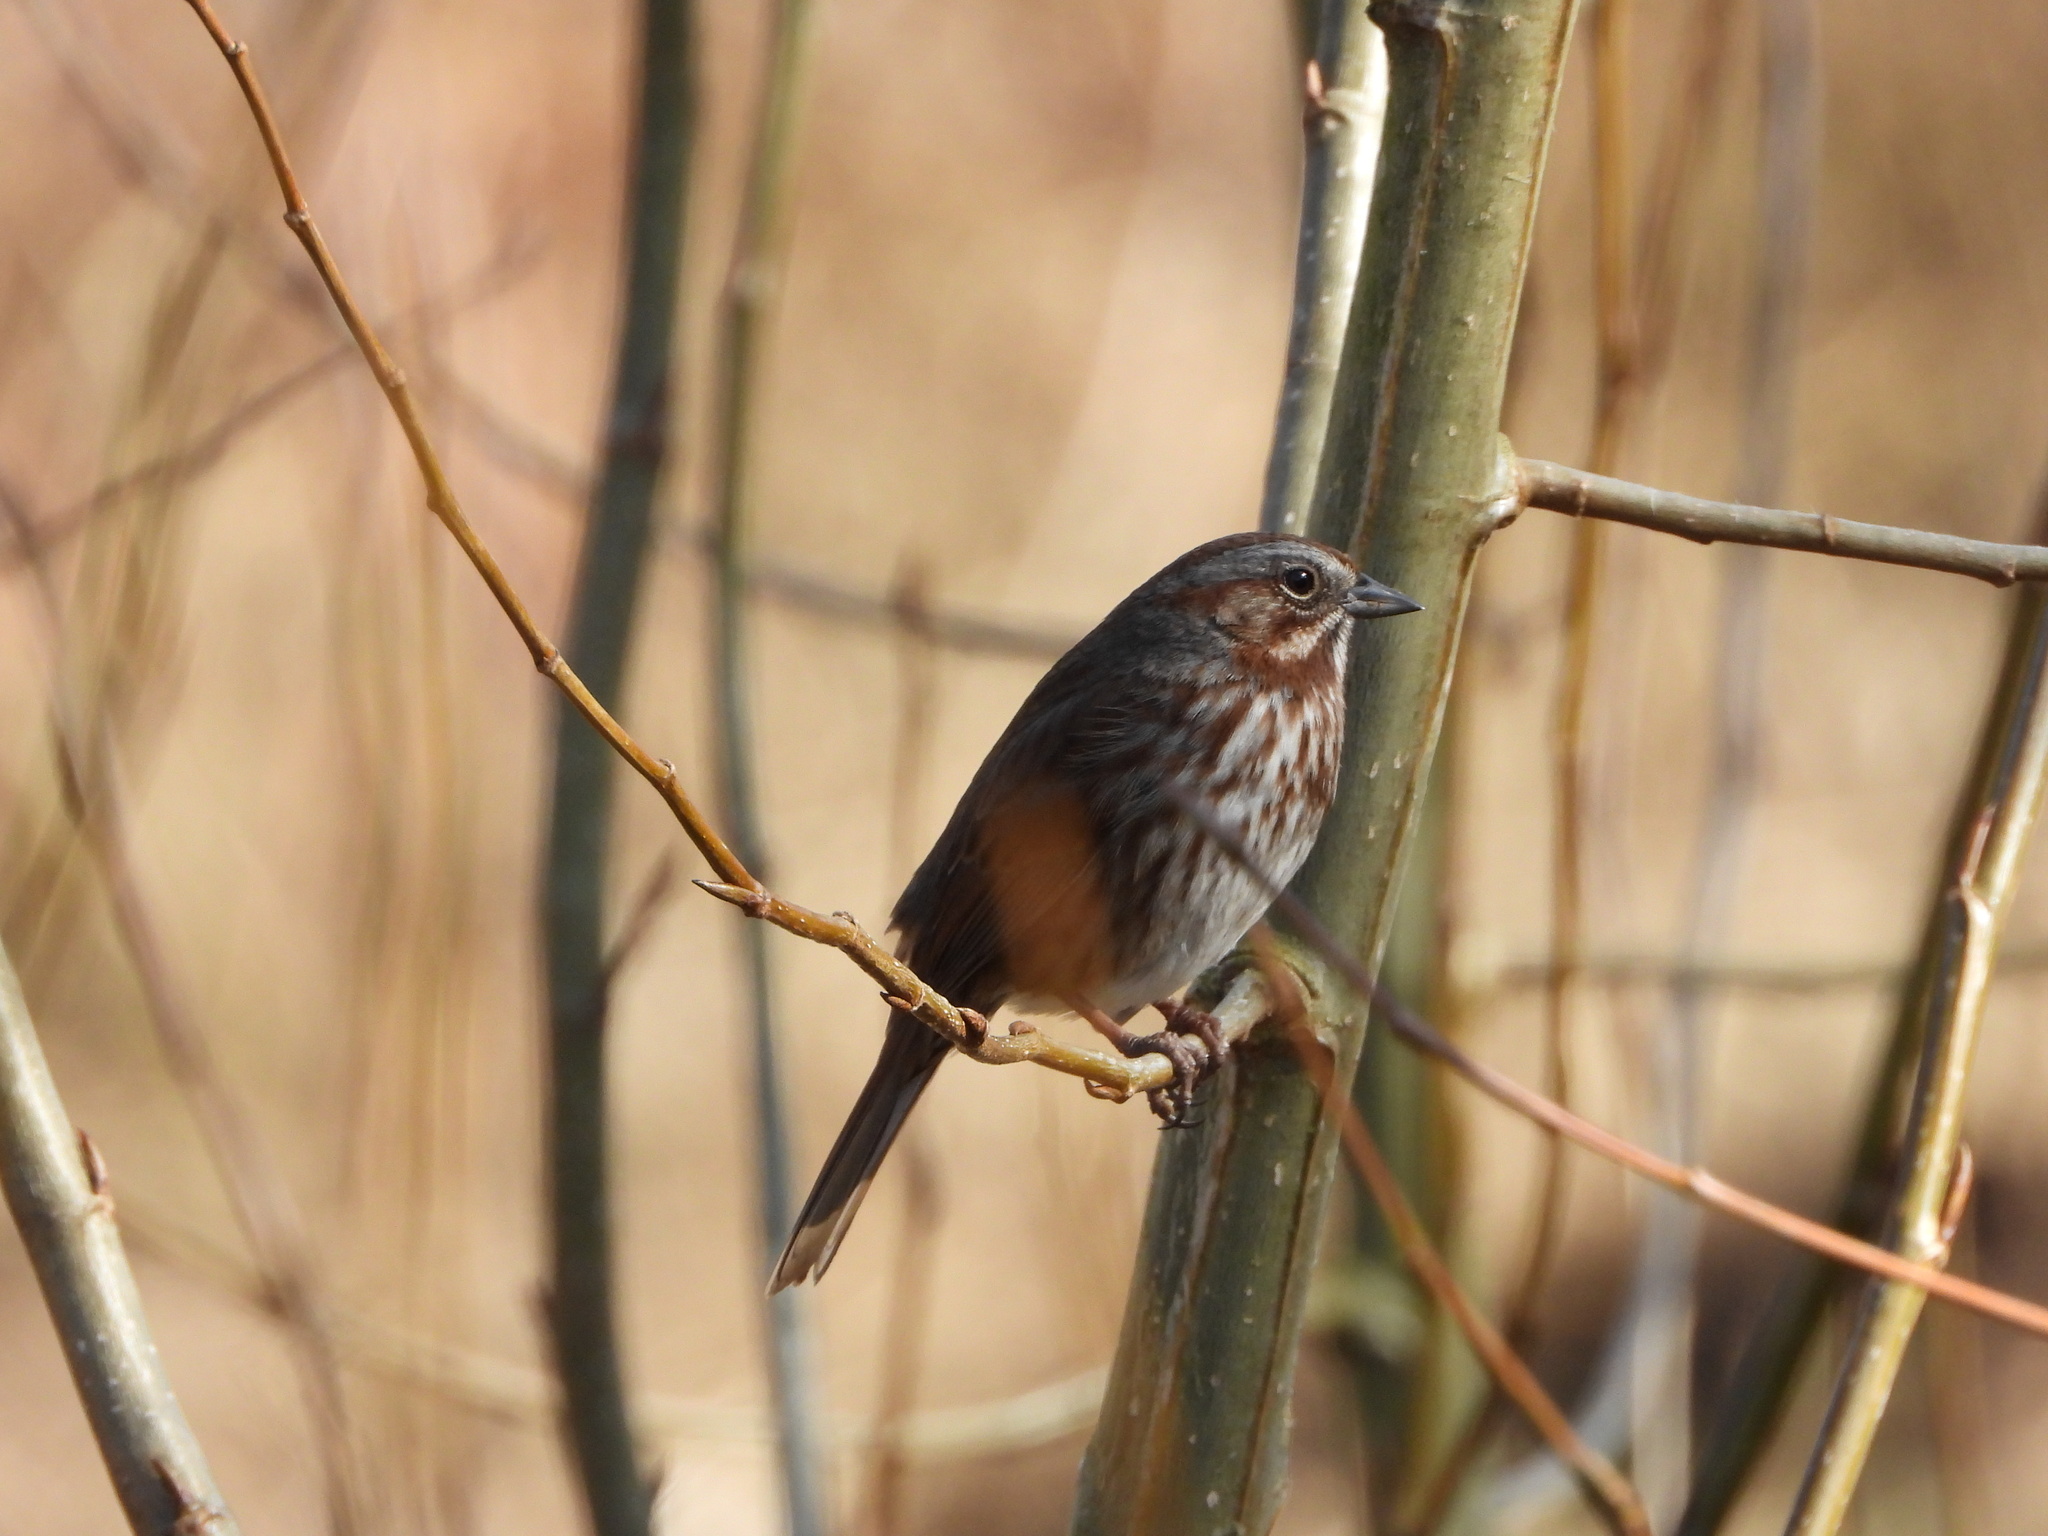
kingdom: Animalia
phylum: Chordata
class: Aves
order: Passeriformes
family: Passerellidae
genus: Melospiza
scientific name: Melospiza melodia
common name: Song sparrow
